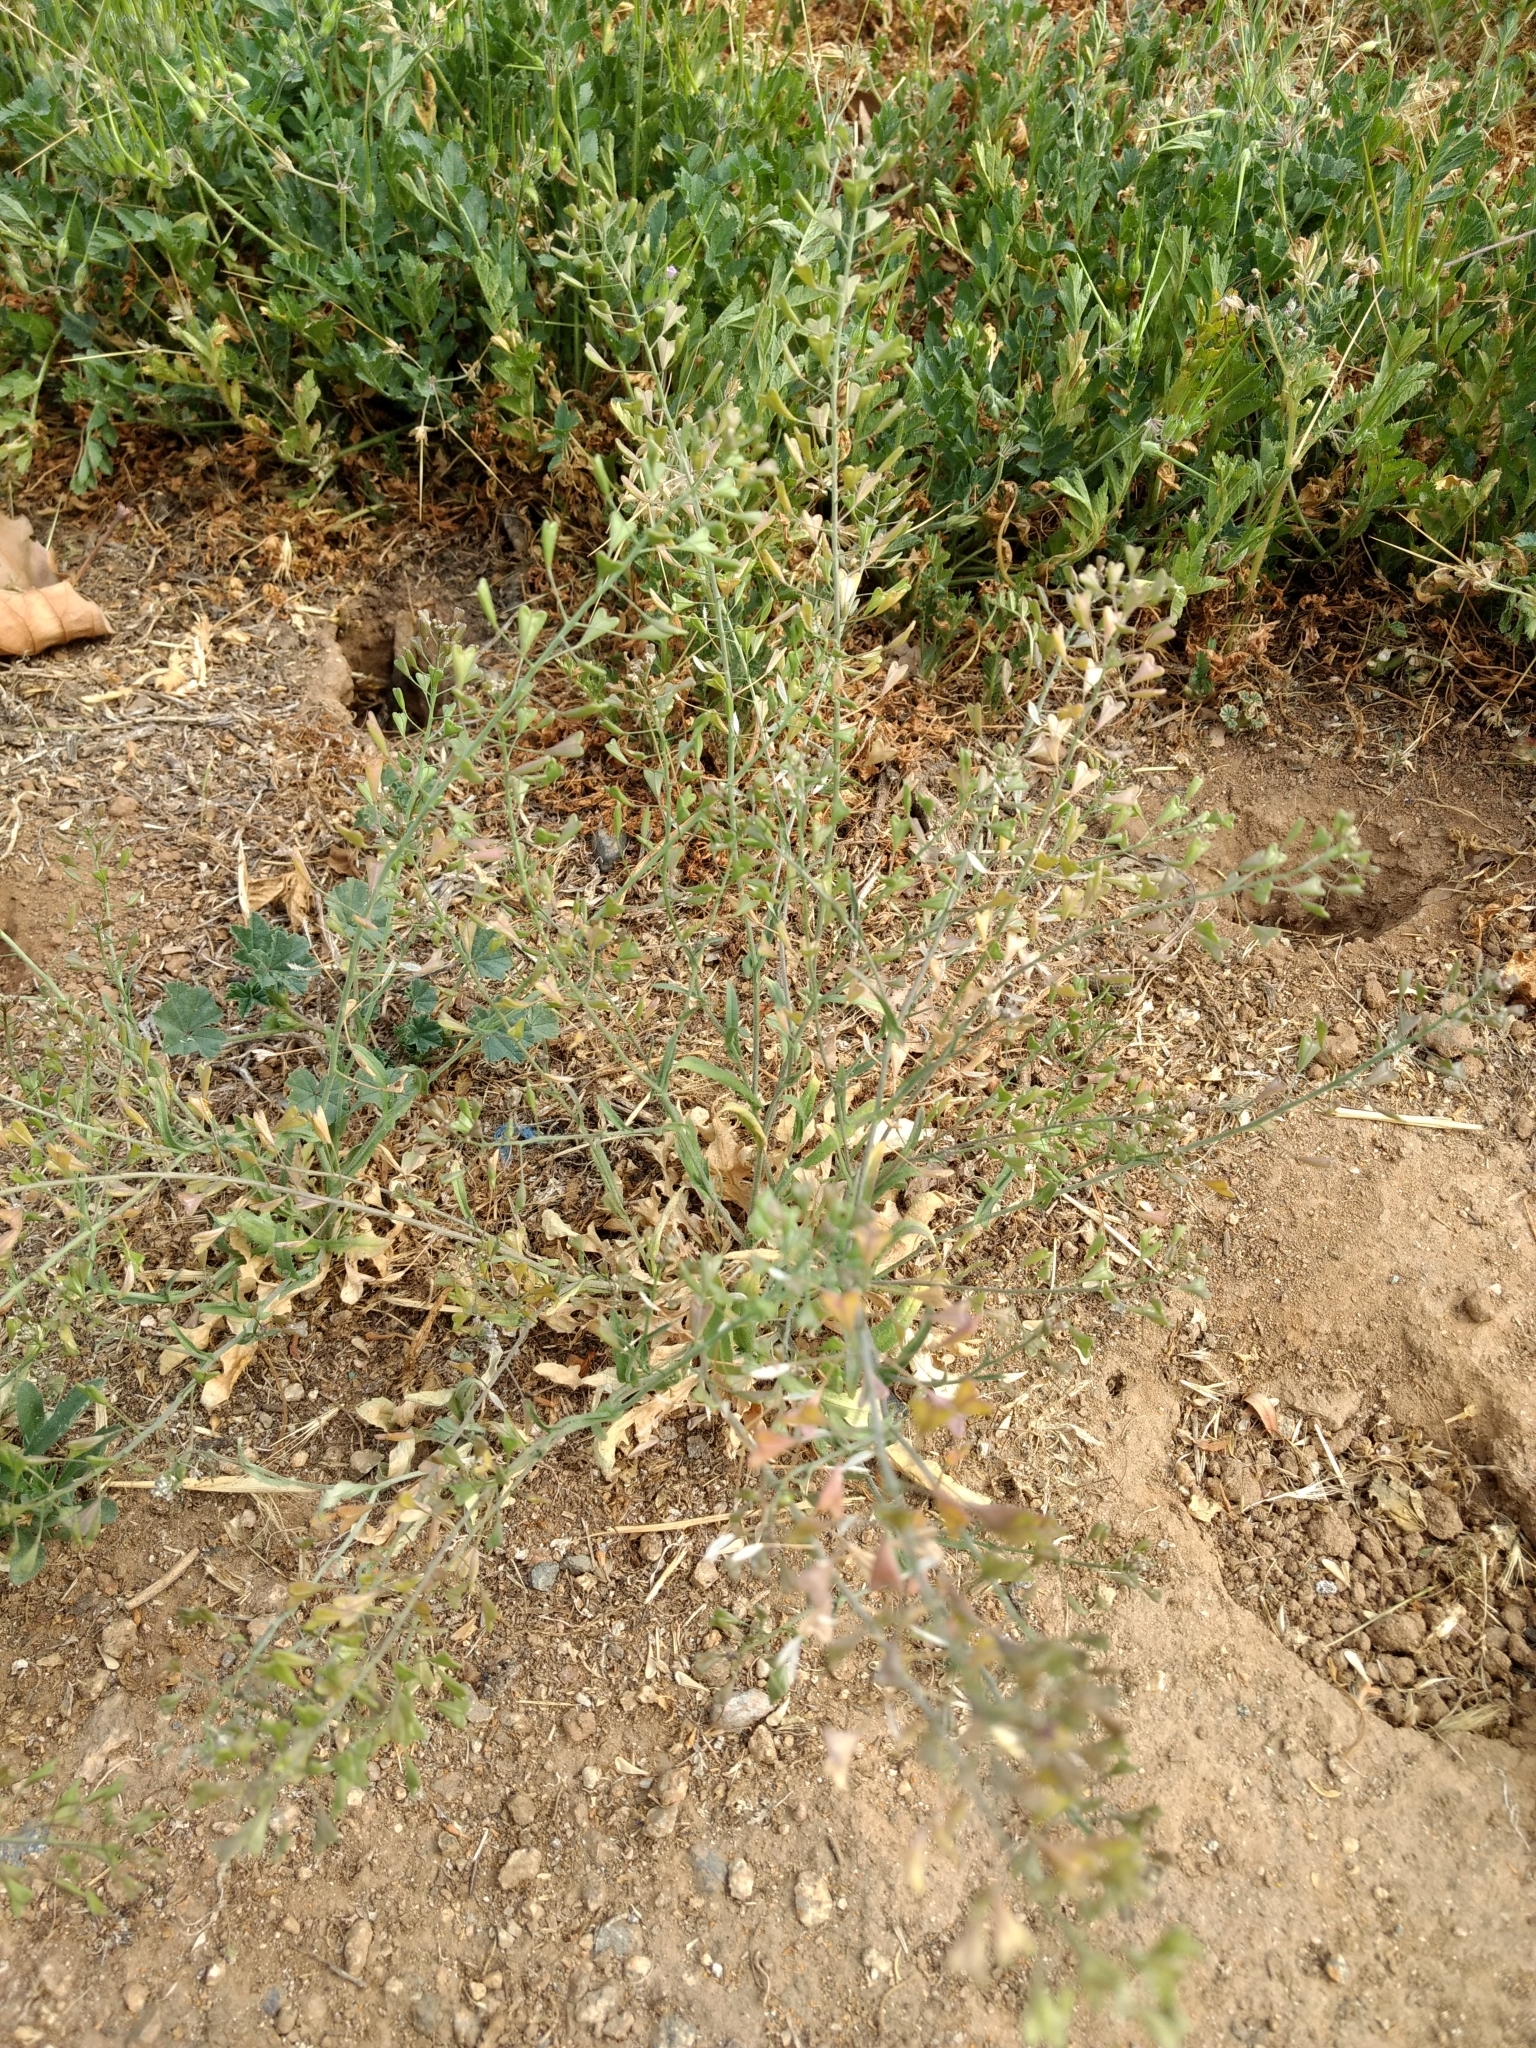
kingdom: Plantae
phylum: Tracheophyta
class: Magnoliopsida
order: Brassicales
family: Brassicaceae
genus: Capsella
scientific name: Capsella bursa-pastoris
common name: Shepherd's purse
